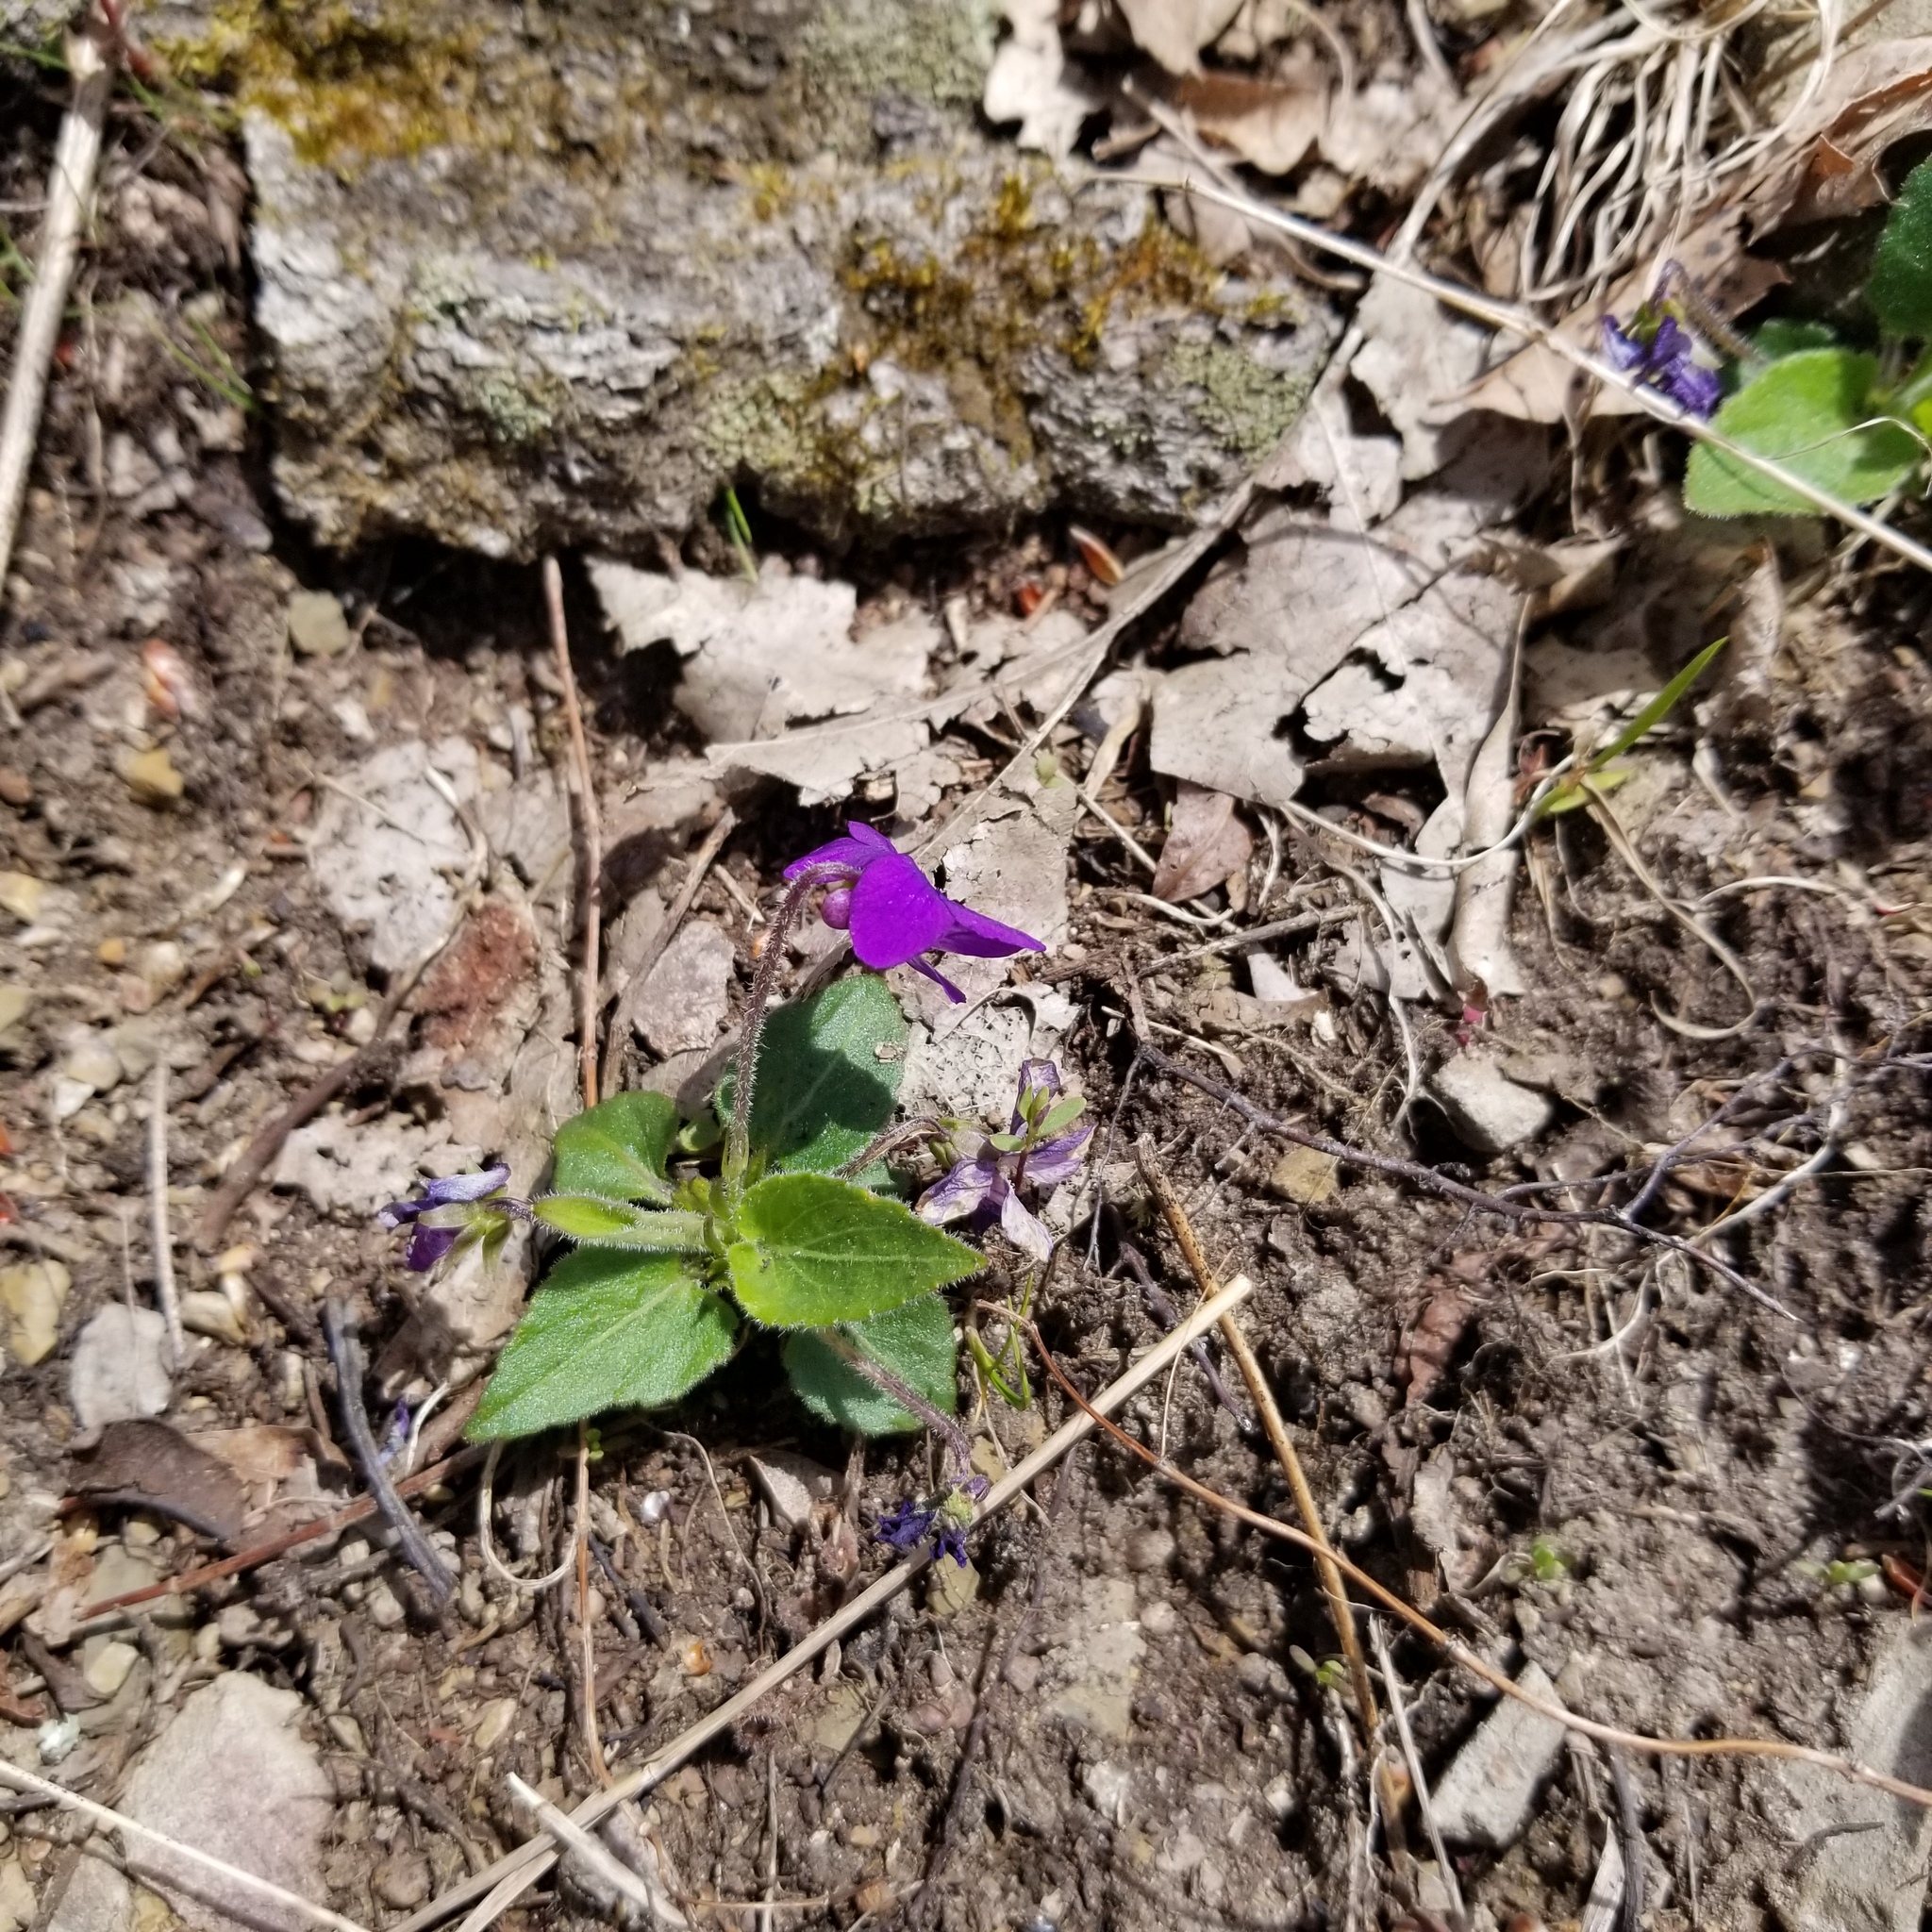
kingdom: Plantae
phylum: Tracheophyta
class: Magnoliopsida
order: Malpighiales
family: Violaceae
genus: Viola
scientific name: Viola fimbriatula
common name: Sand violet
